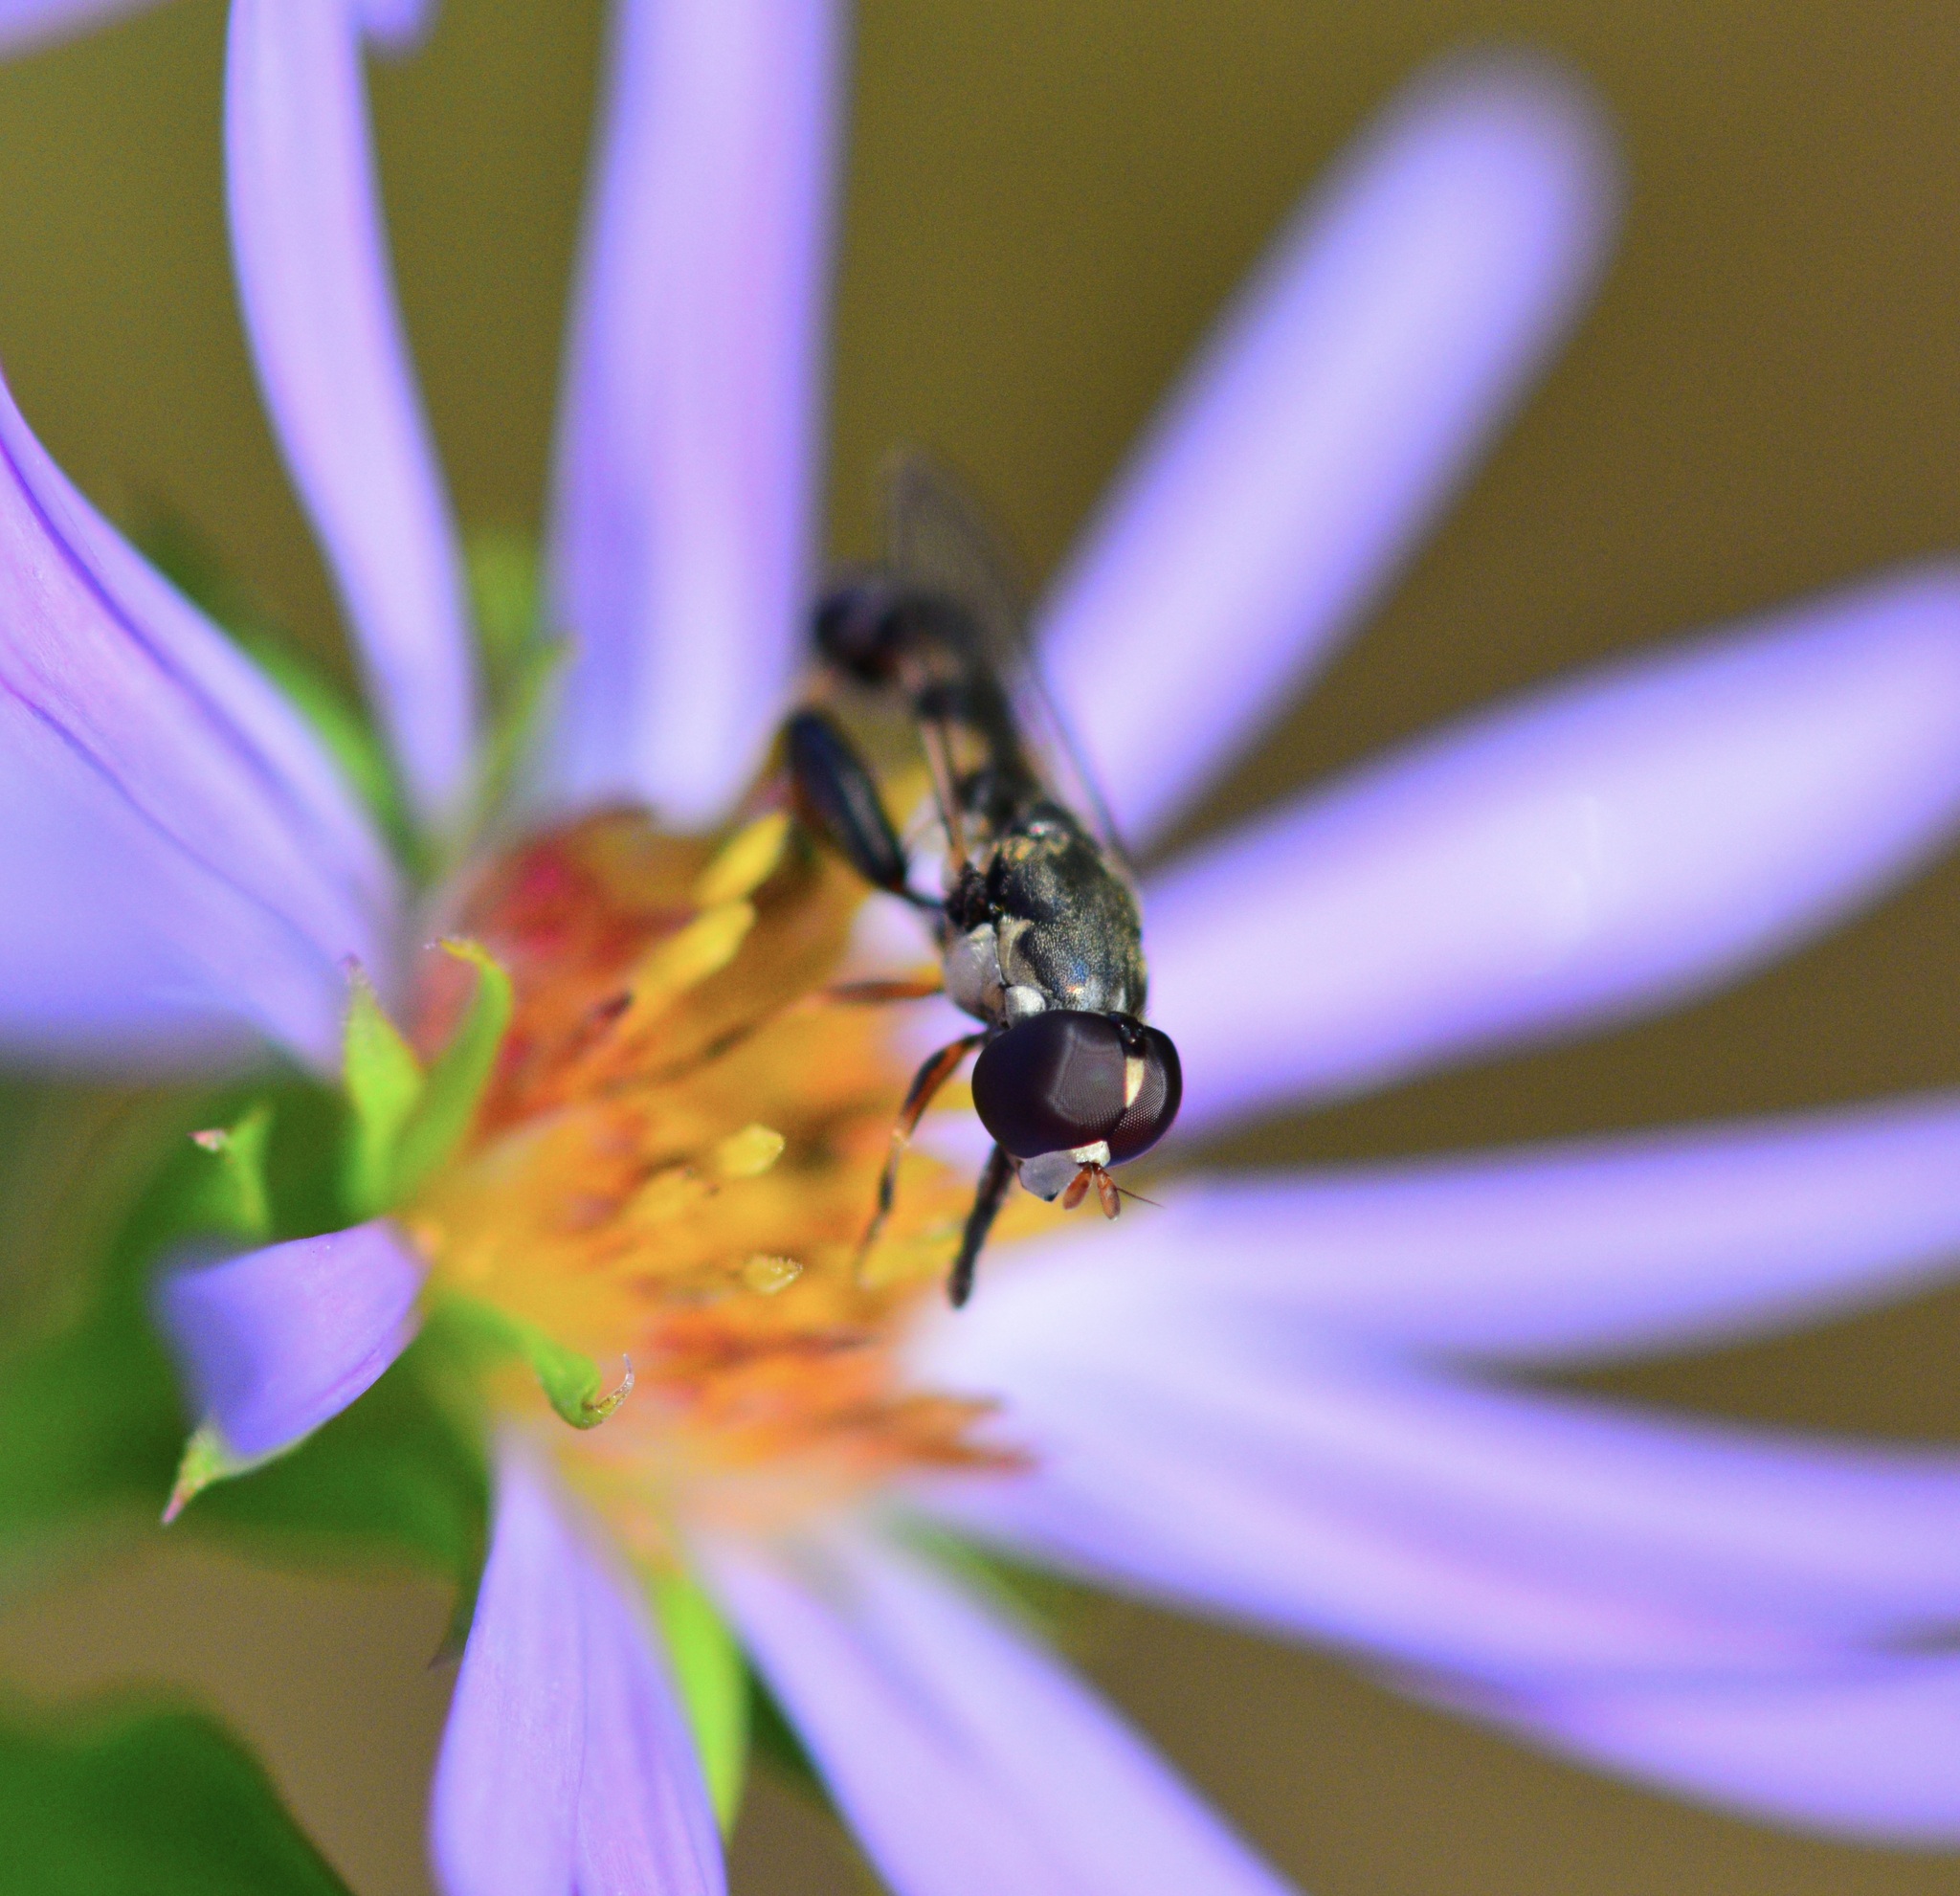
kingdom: Animalia
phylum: Arthropoda
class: Insecta
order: Diptera
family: Syrphidae
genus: Syritta
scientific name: Syritta pipiens
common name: Hover fly
